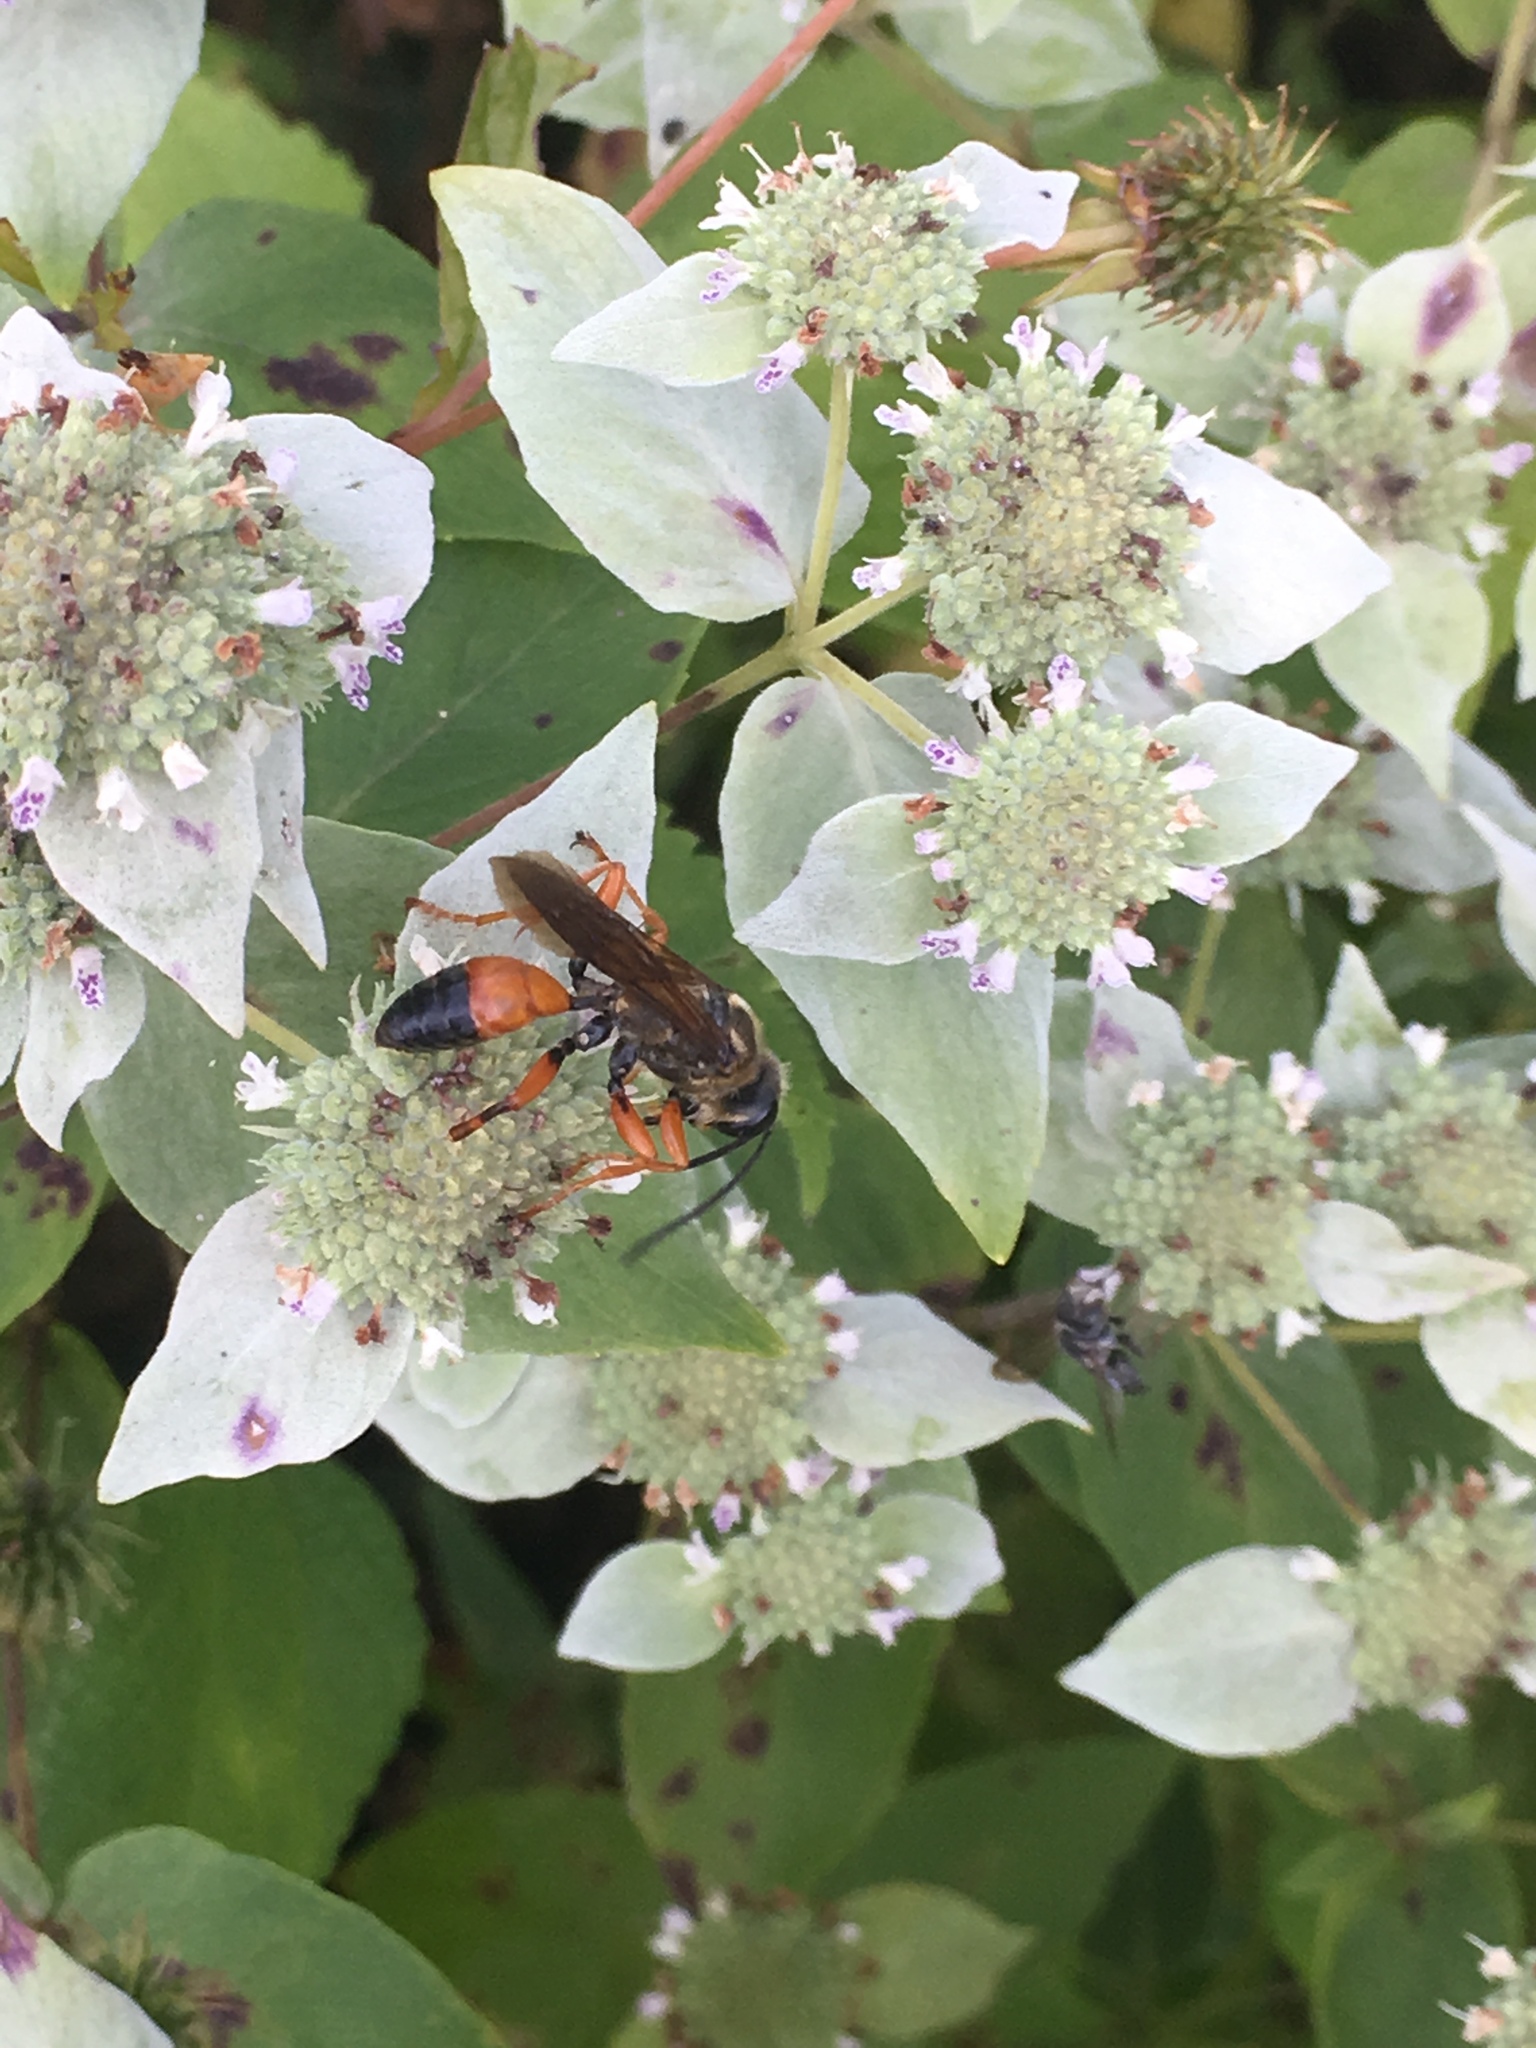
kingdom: Animalia
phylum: Arthropoda
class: Insecta
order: Hymenoptera
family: Sphecidae
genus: Sphex
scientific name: Sphex ichneumoneus
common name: Great golden digger wasp
